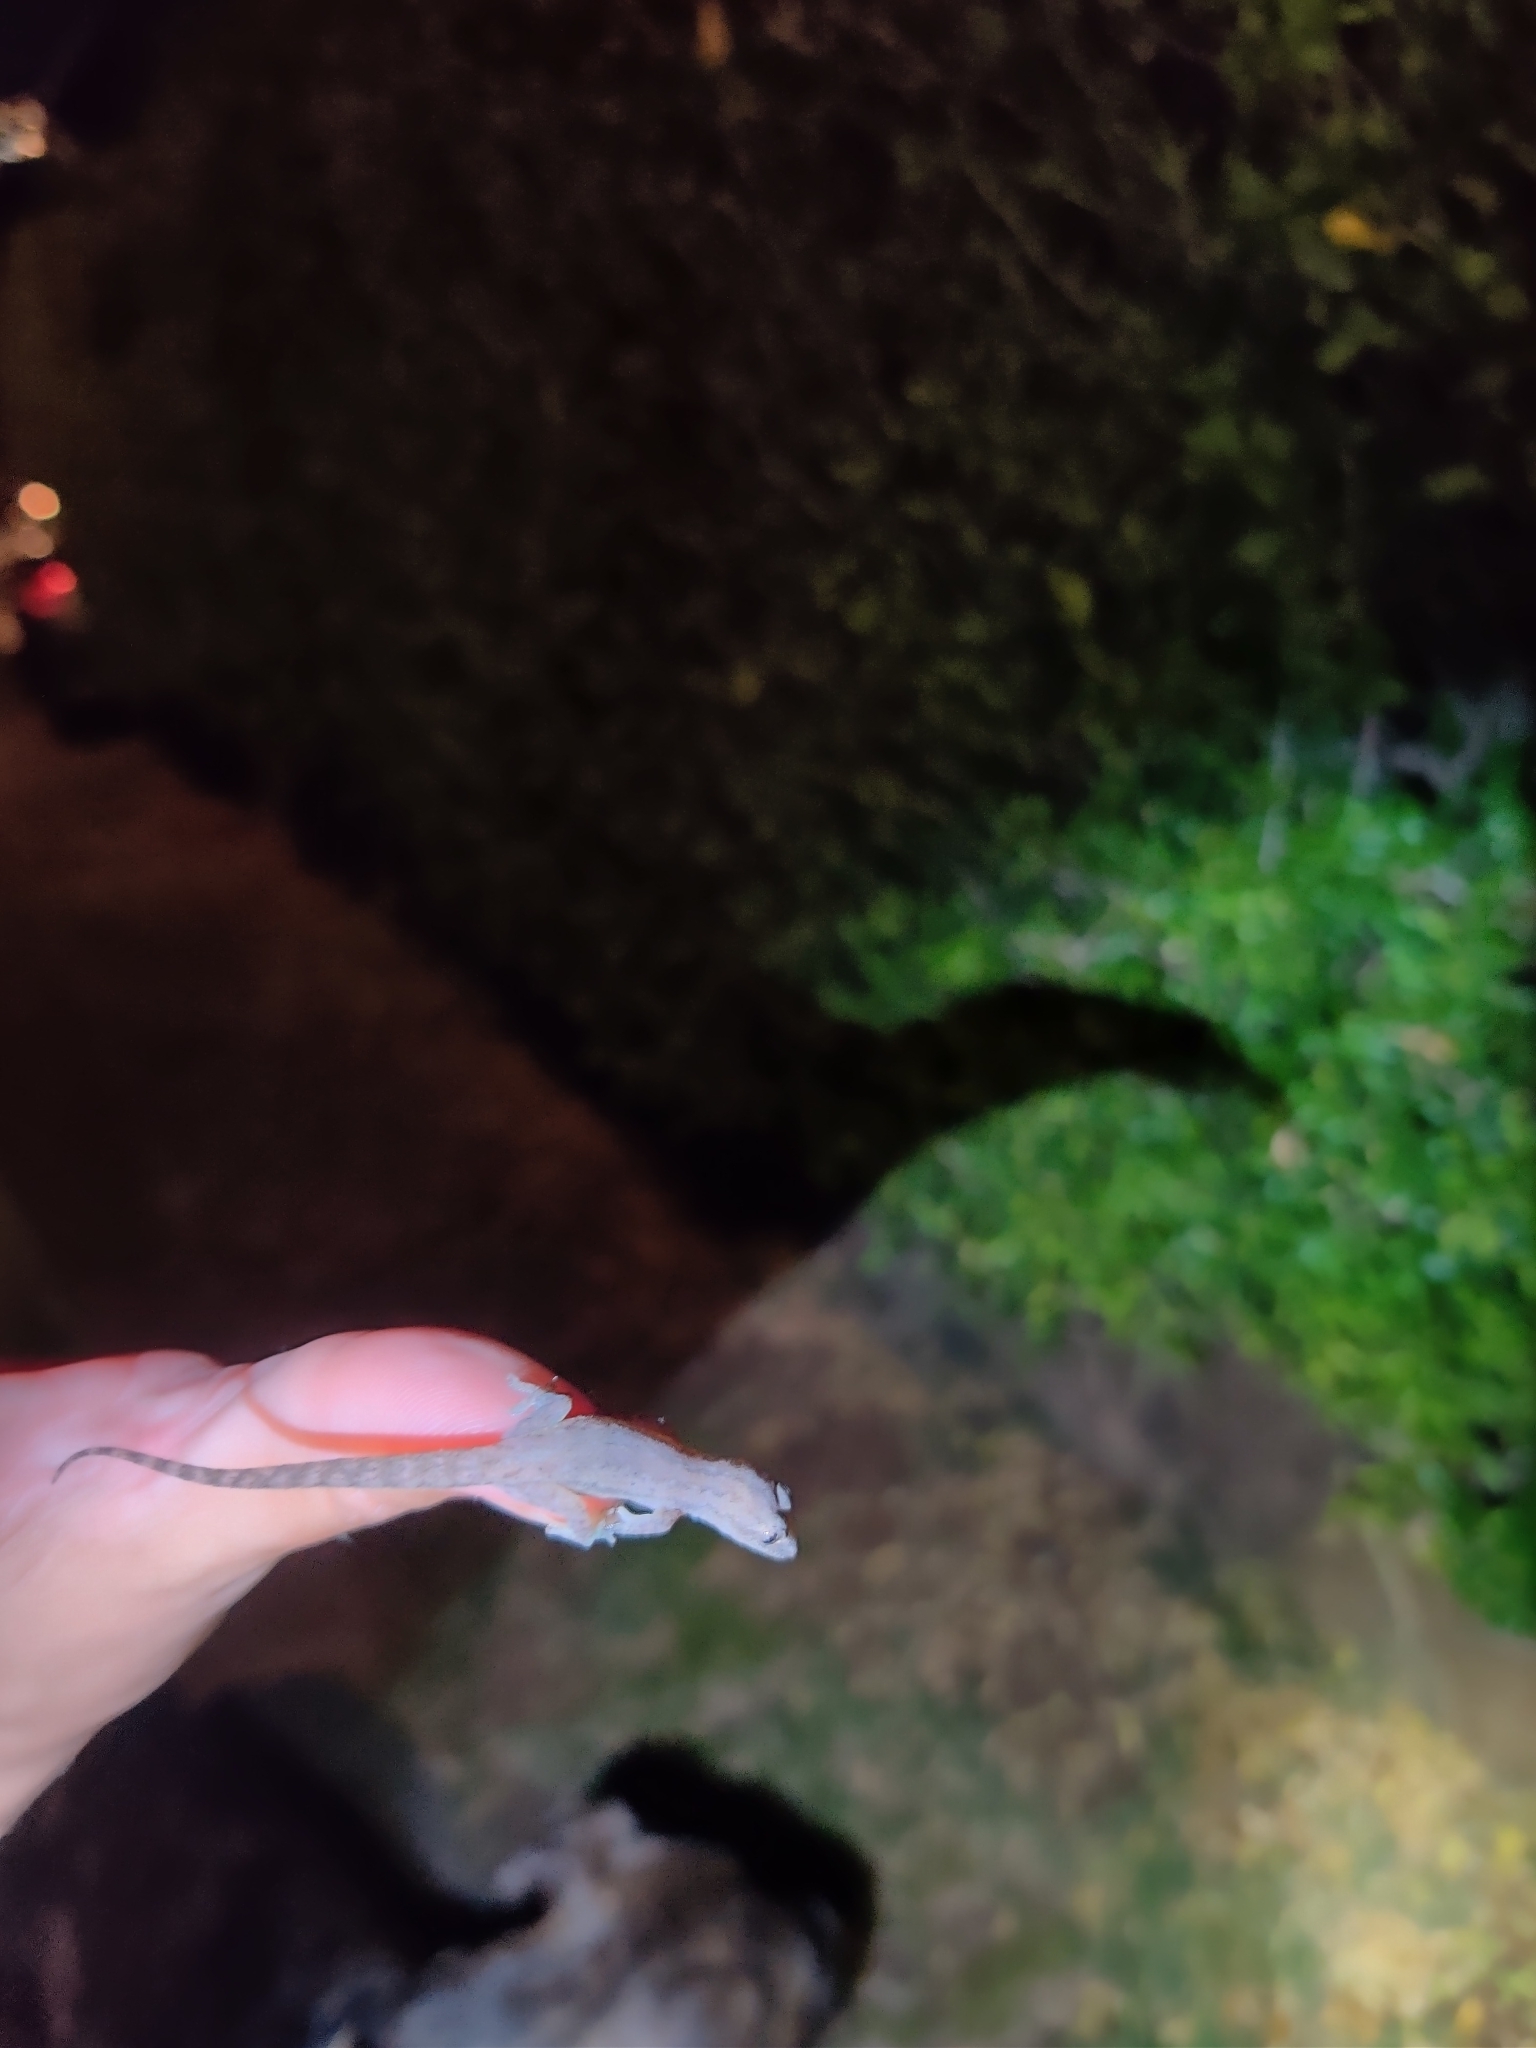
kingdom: Animalia
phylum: Chordata
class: Squamata
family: Gekkonidae
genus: Hemidactylus
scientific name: Hemidactylus frenatus
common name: Common house gecko
